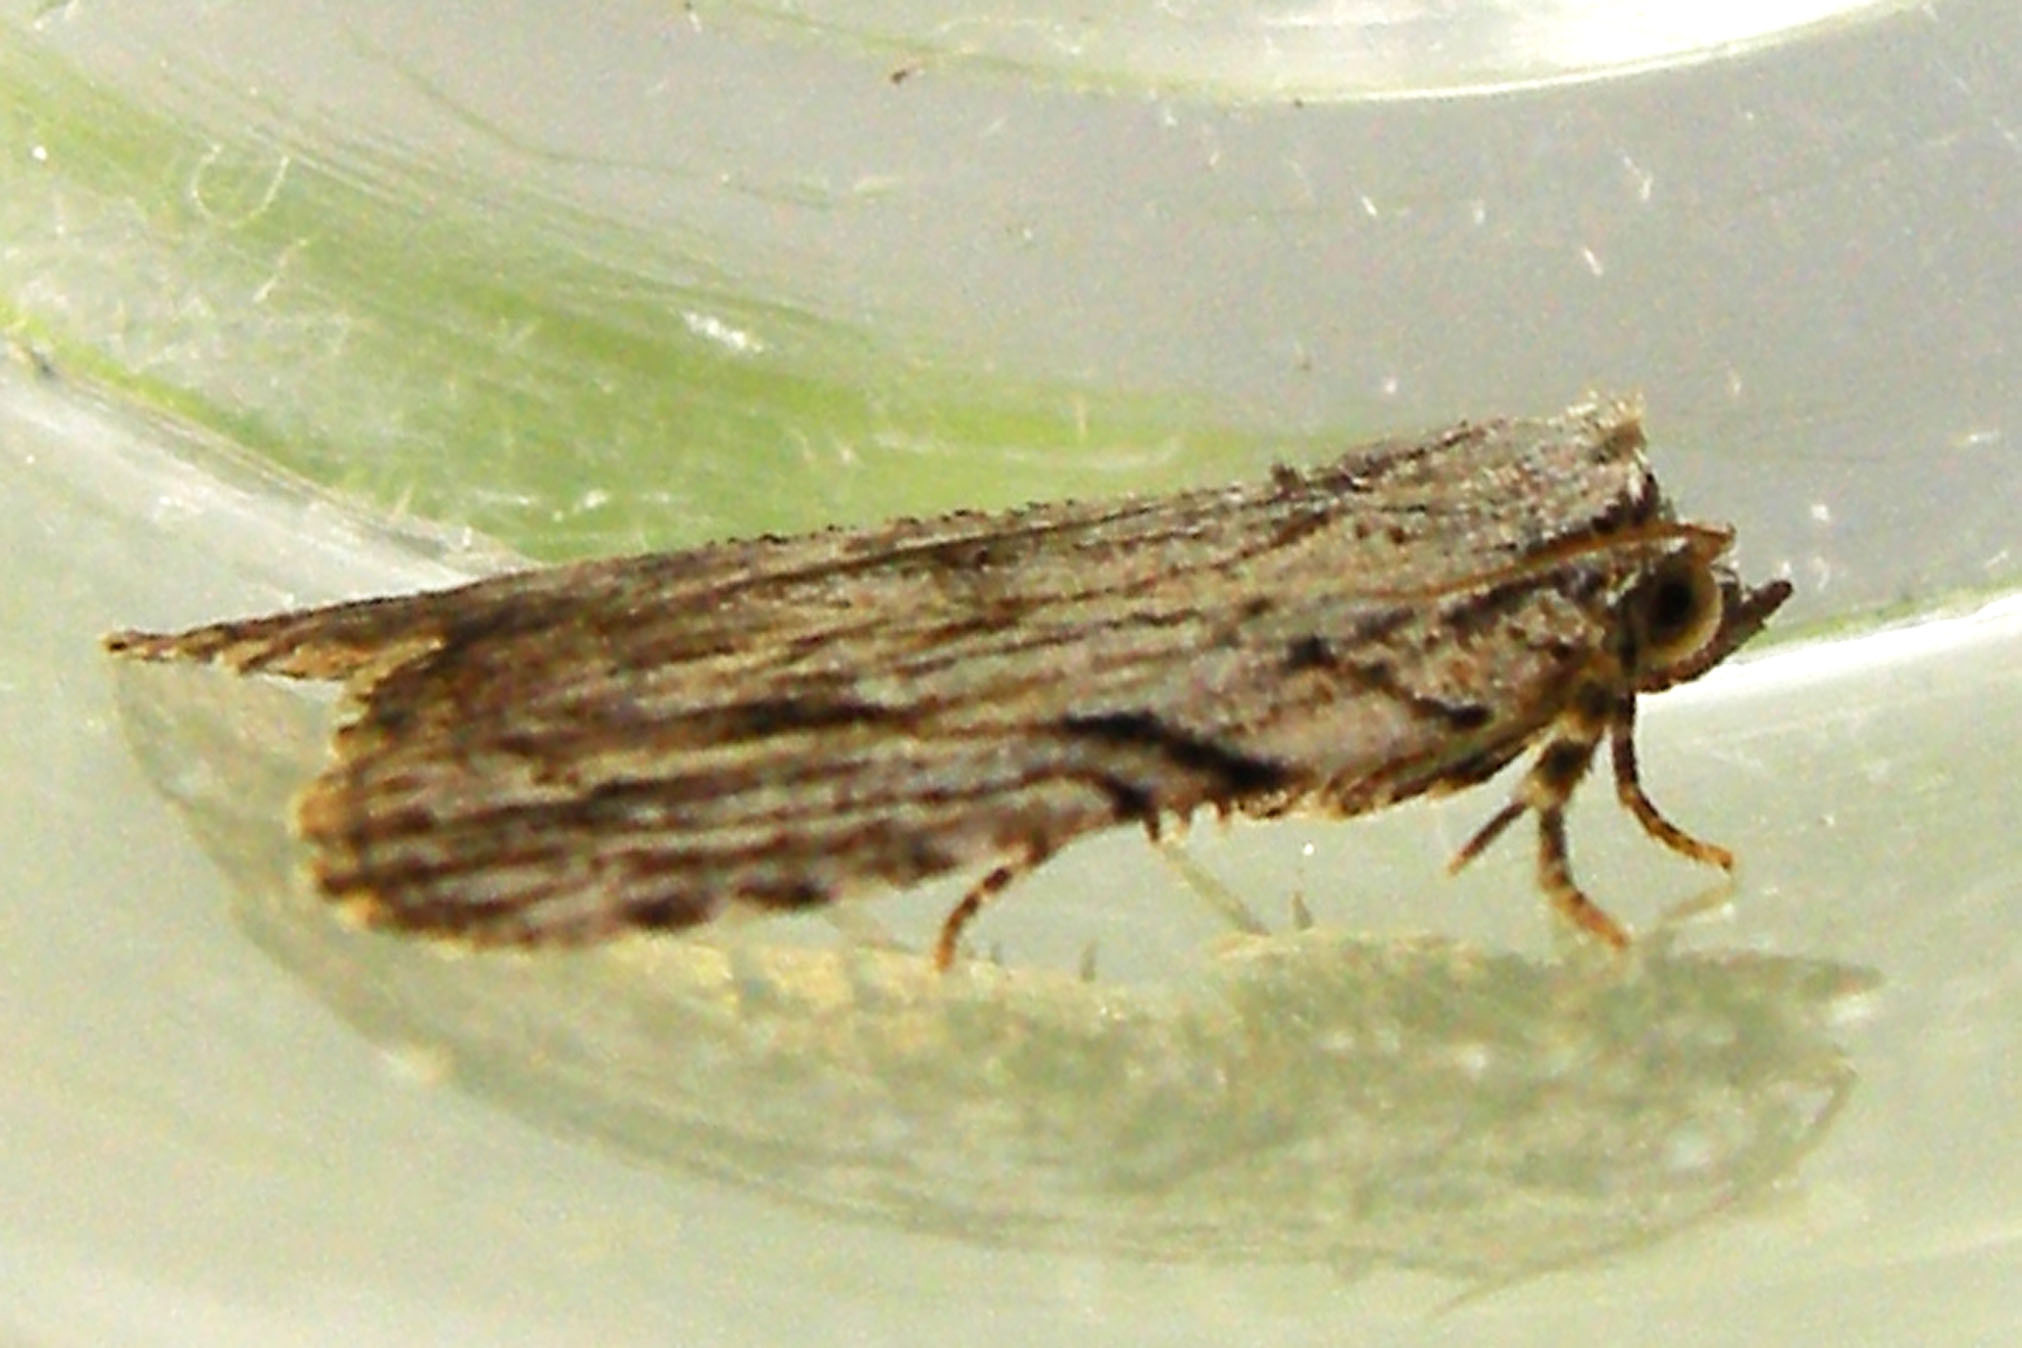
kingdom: Animalia
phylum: Arthropoda
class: Insecta
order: Lepidoptera
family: Noctuidae
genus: Balsa
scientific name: Balsa tristrigella
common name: Three-lined balsa moth
